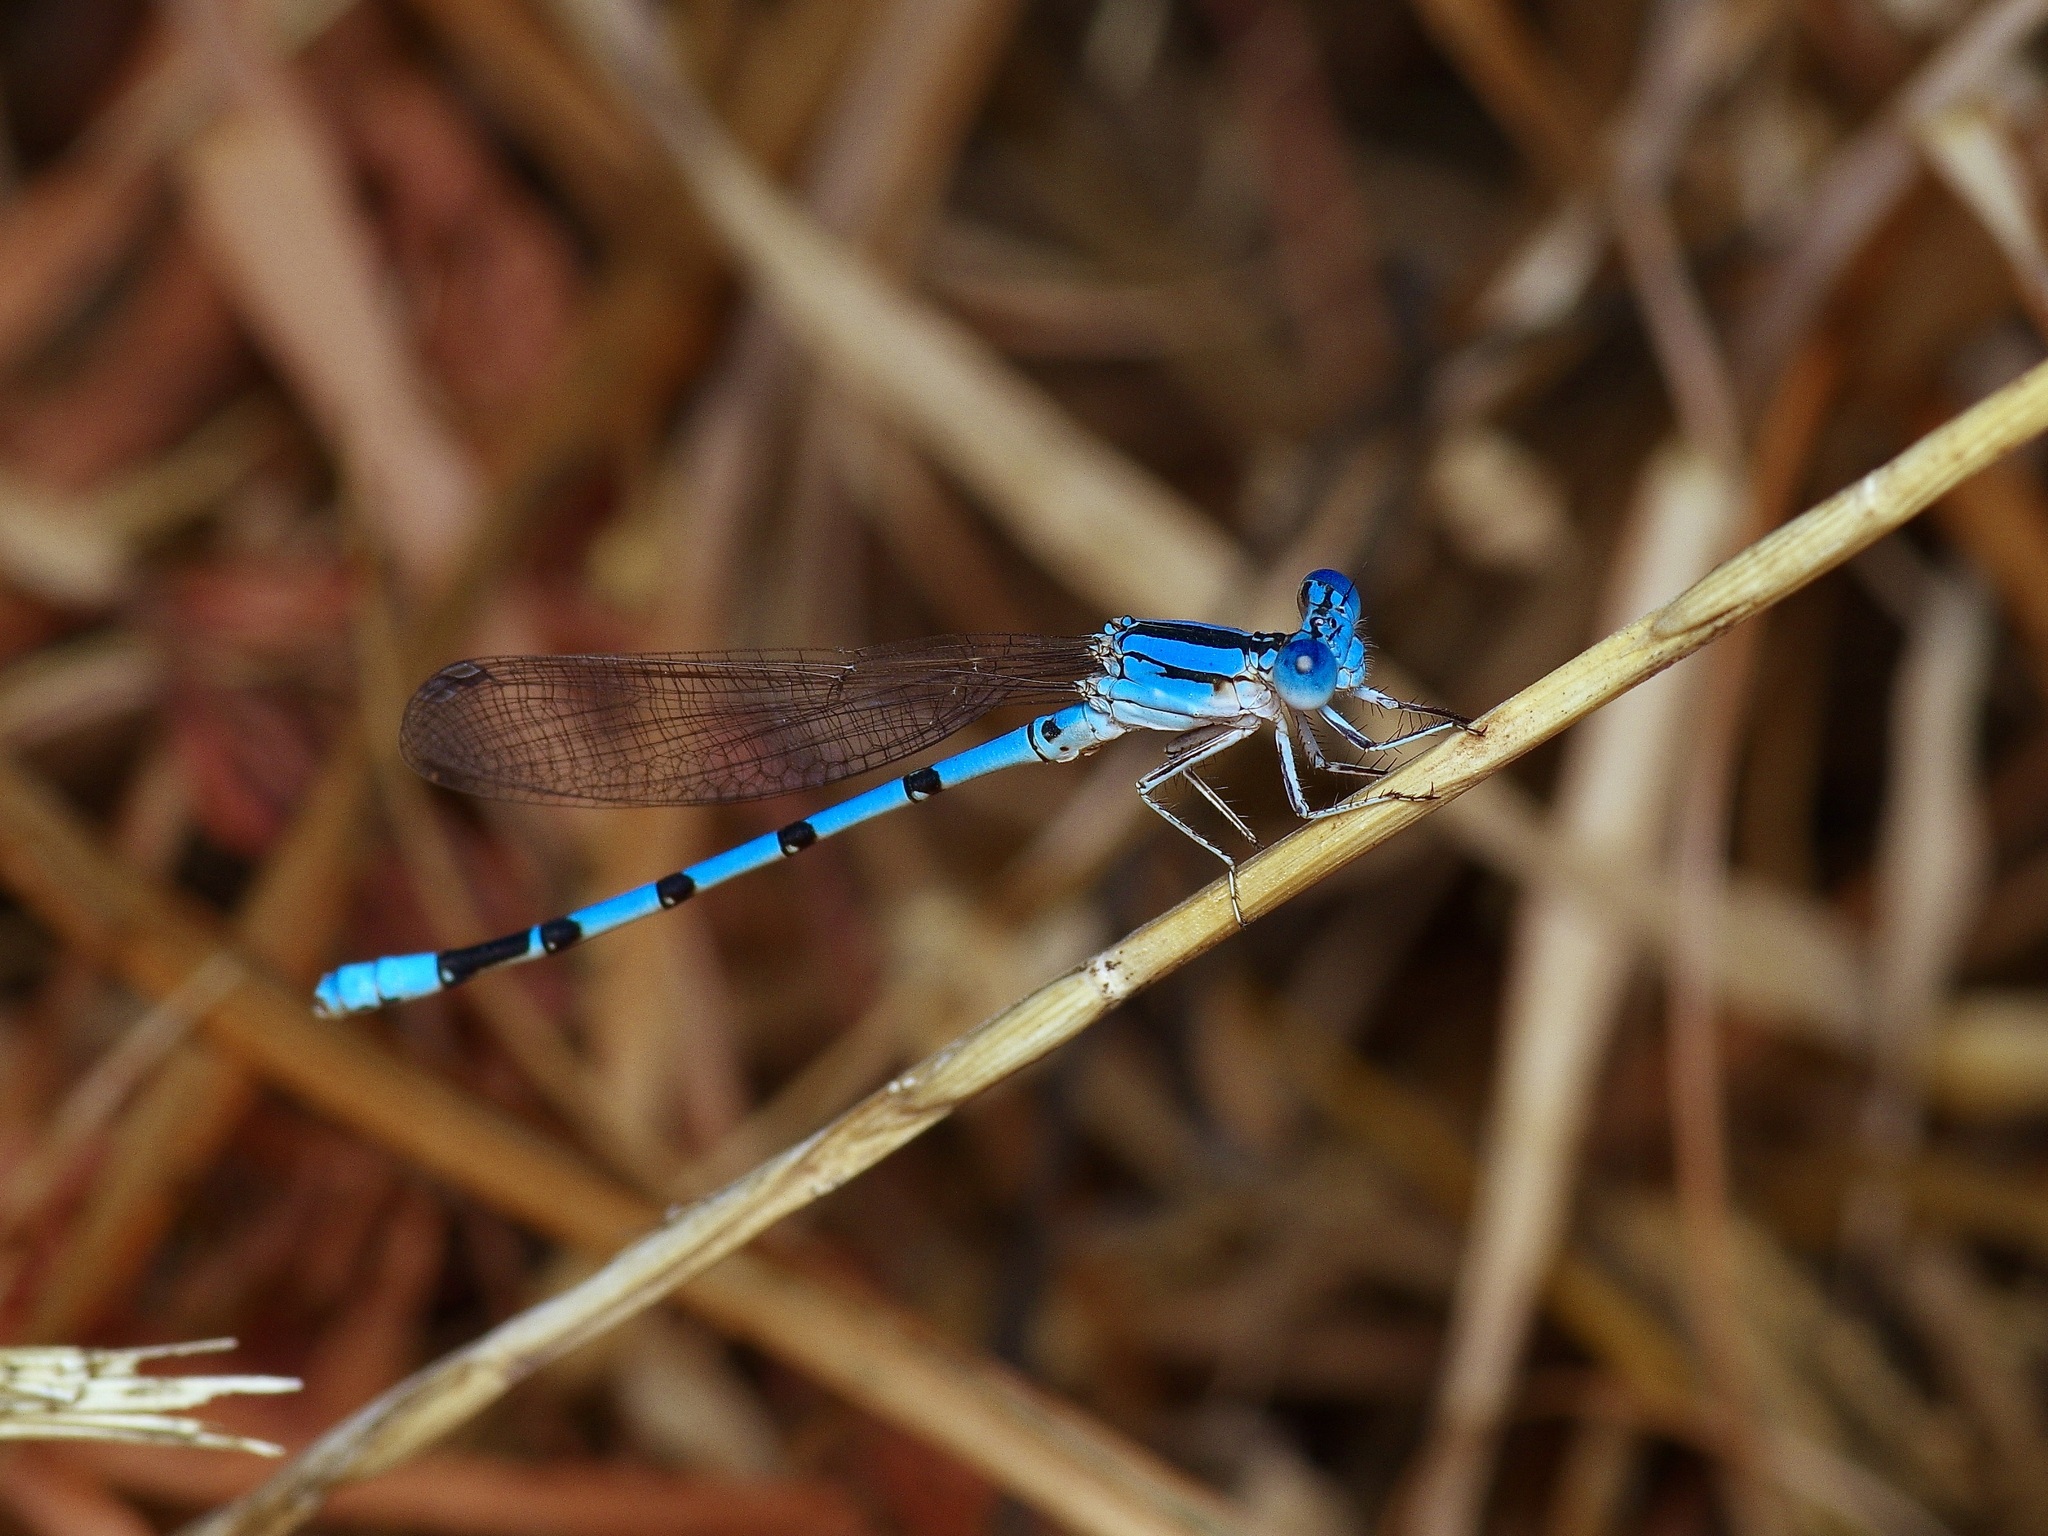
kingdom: Animalia
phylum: Arthropoda
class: Insecta
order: Odonata
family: Coenagrionidae
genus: Argia
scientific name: Argia nahuana
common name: Aztec dancer
